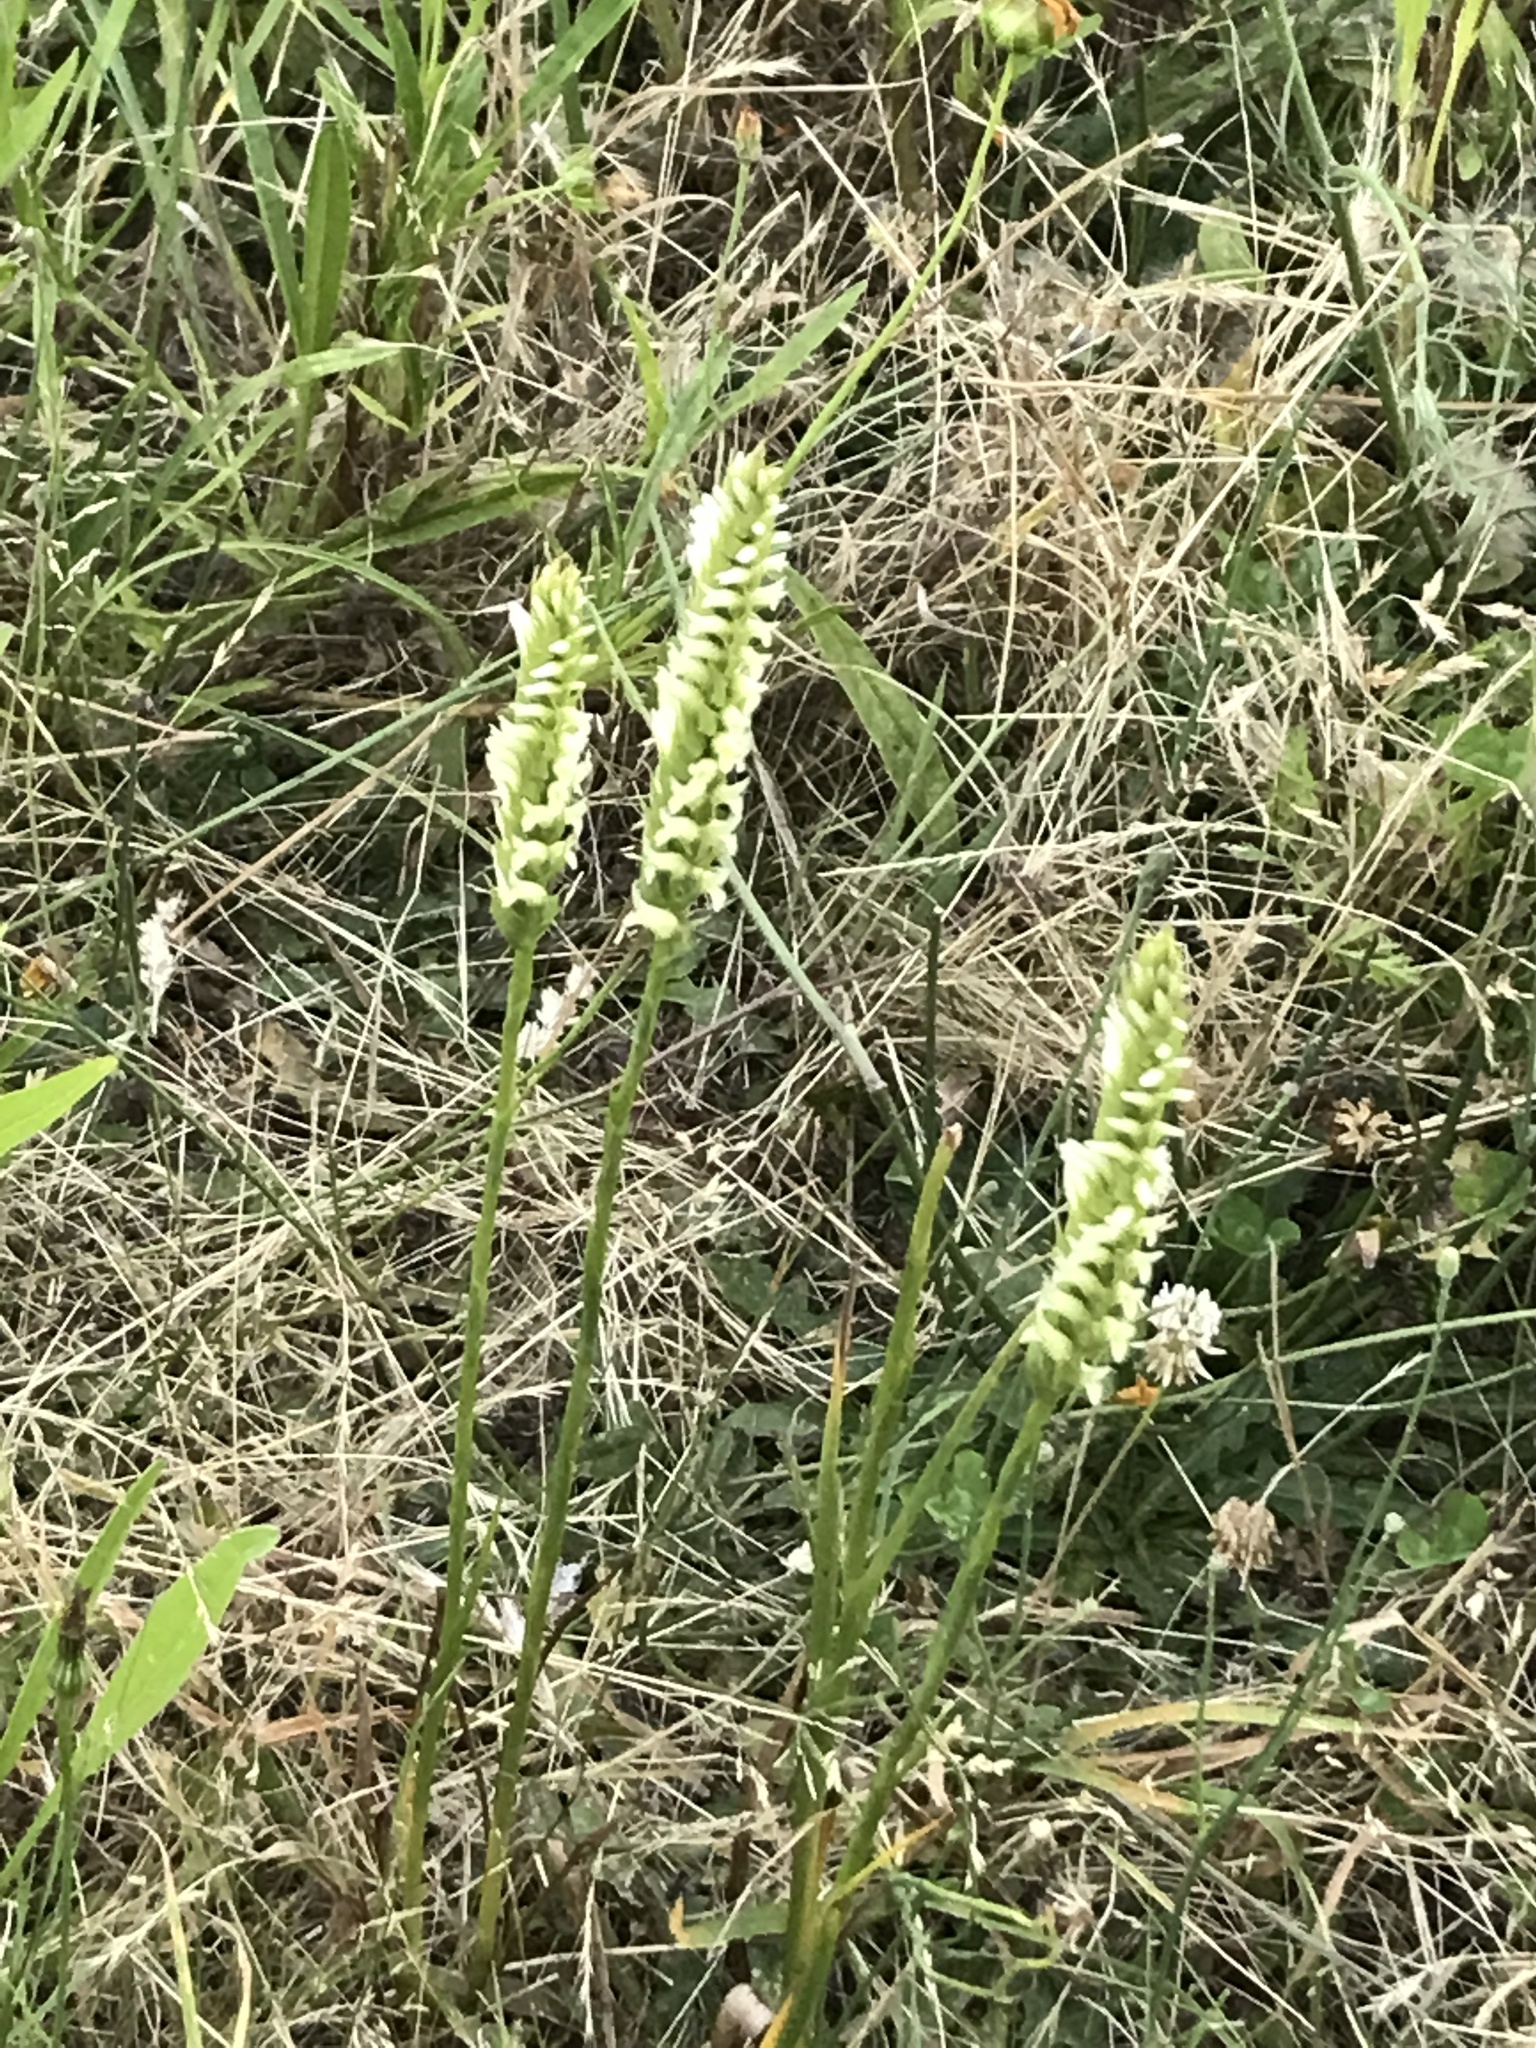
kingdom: Plantae
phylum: Tracheophyta
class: Liliopsida
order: Asparagales
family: Orchidaceae
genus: Spiranthes
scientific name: Spiranthes romanzoffiana
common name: Irish lady's-tresses
